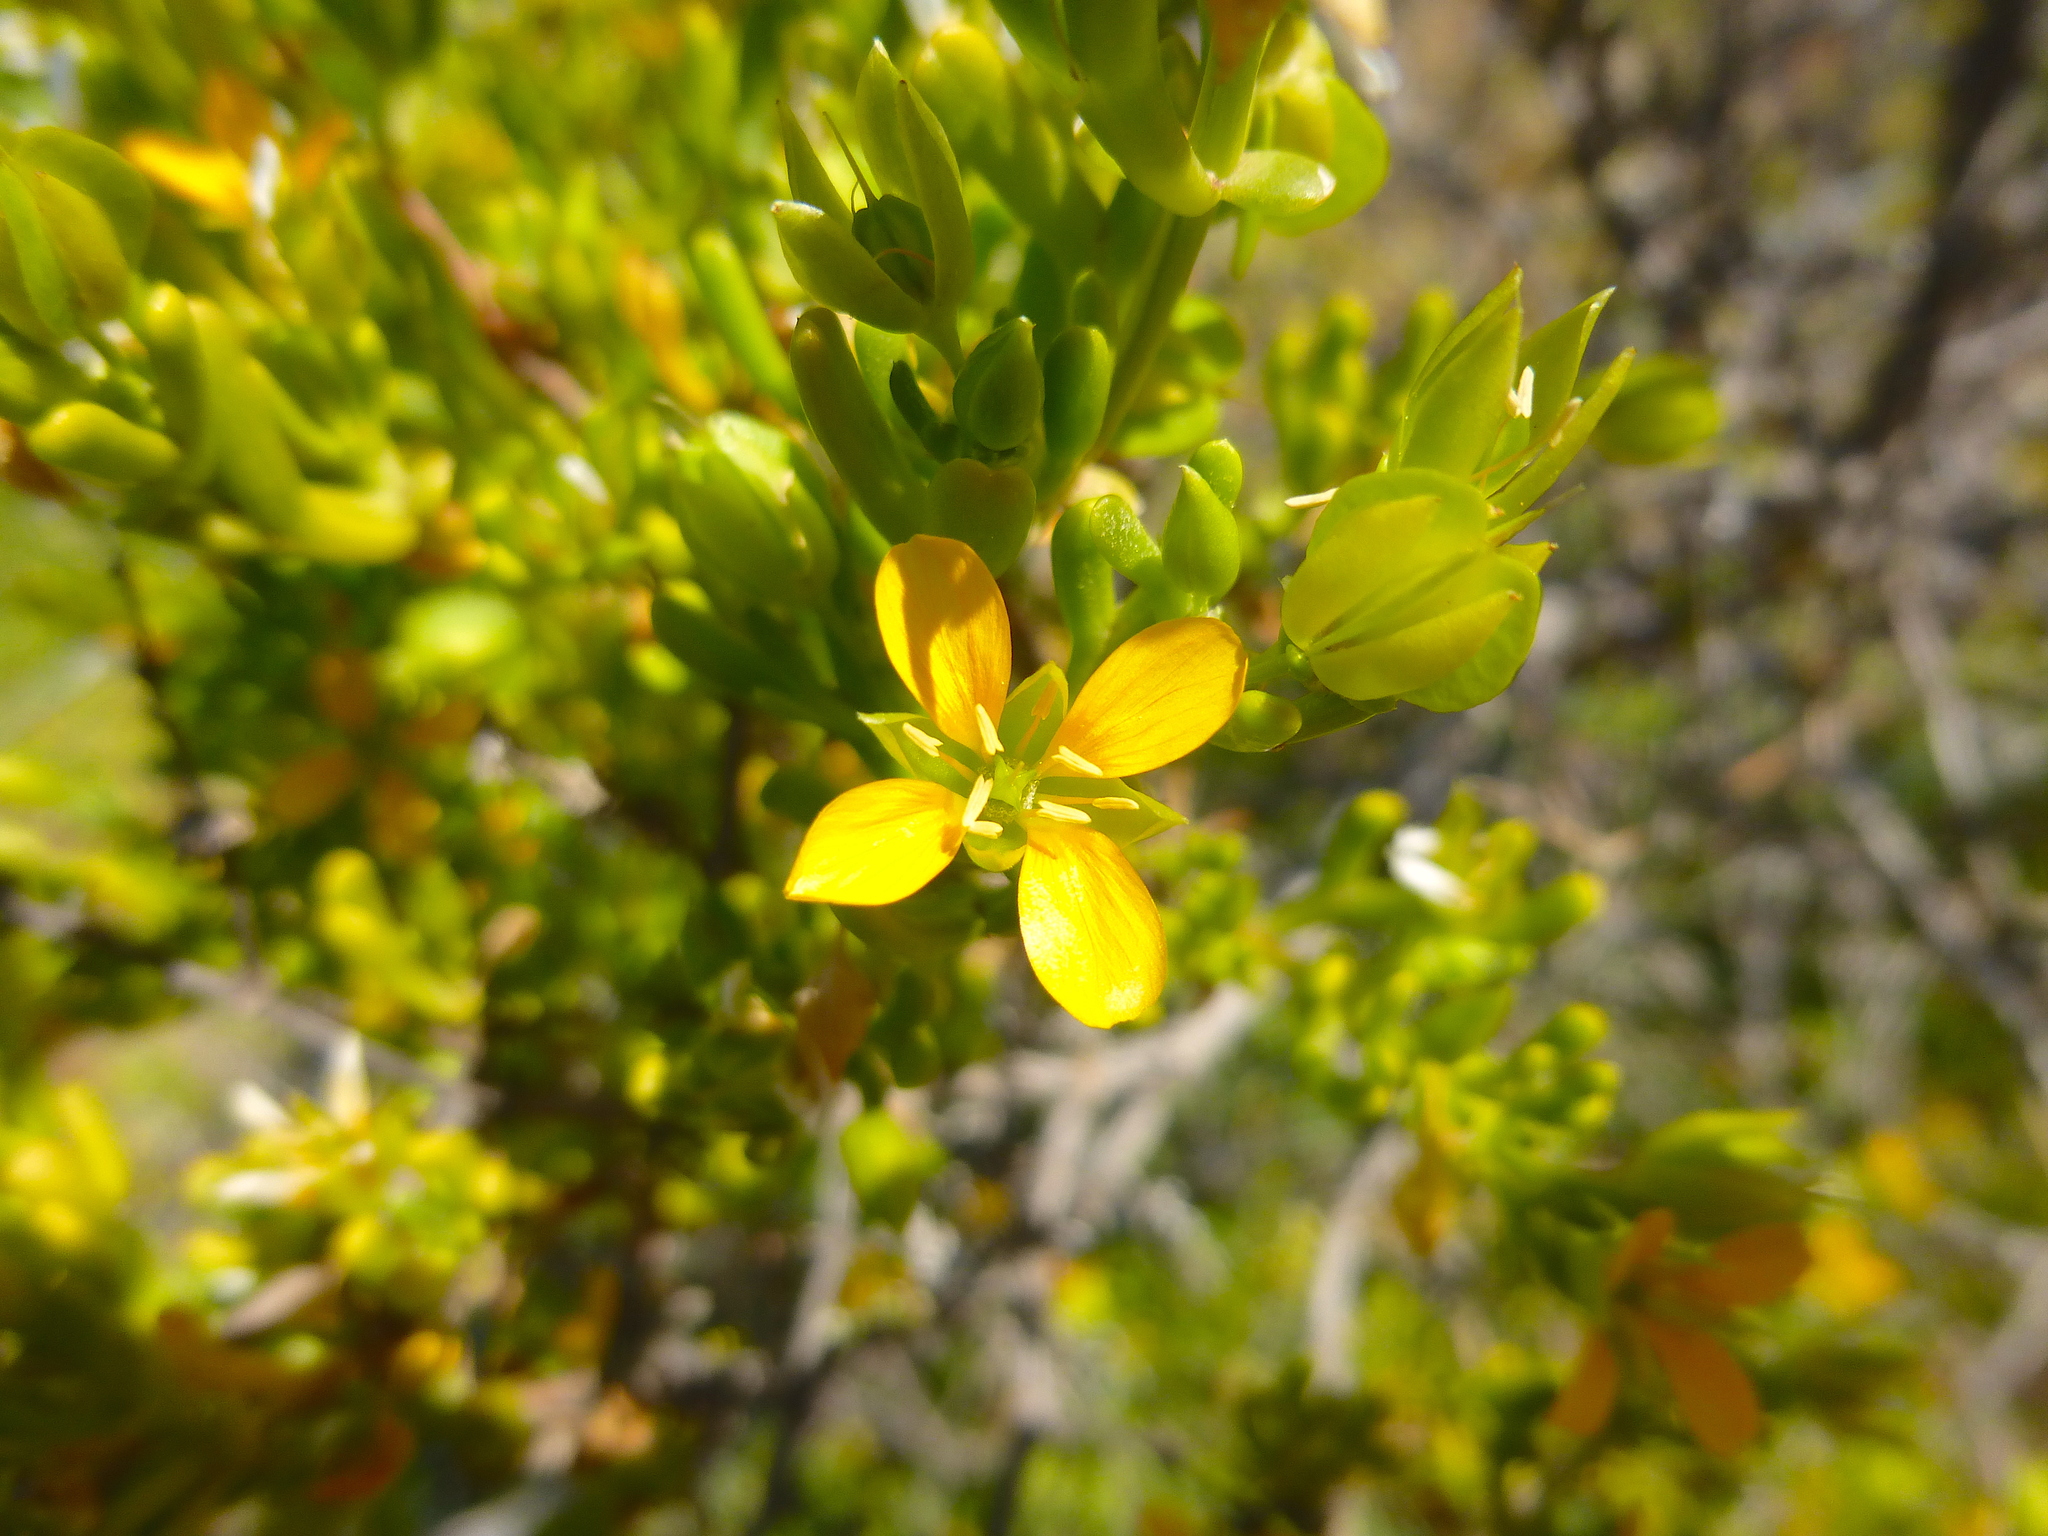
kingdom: Plantae
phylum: Tracheophyta
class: Magnoliopsida
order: Zygophyllales
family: Zygophyllaceae
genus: Roepera
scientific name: Roepera aurantiaca
